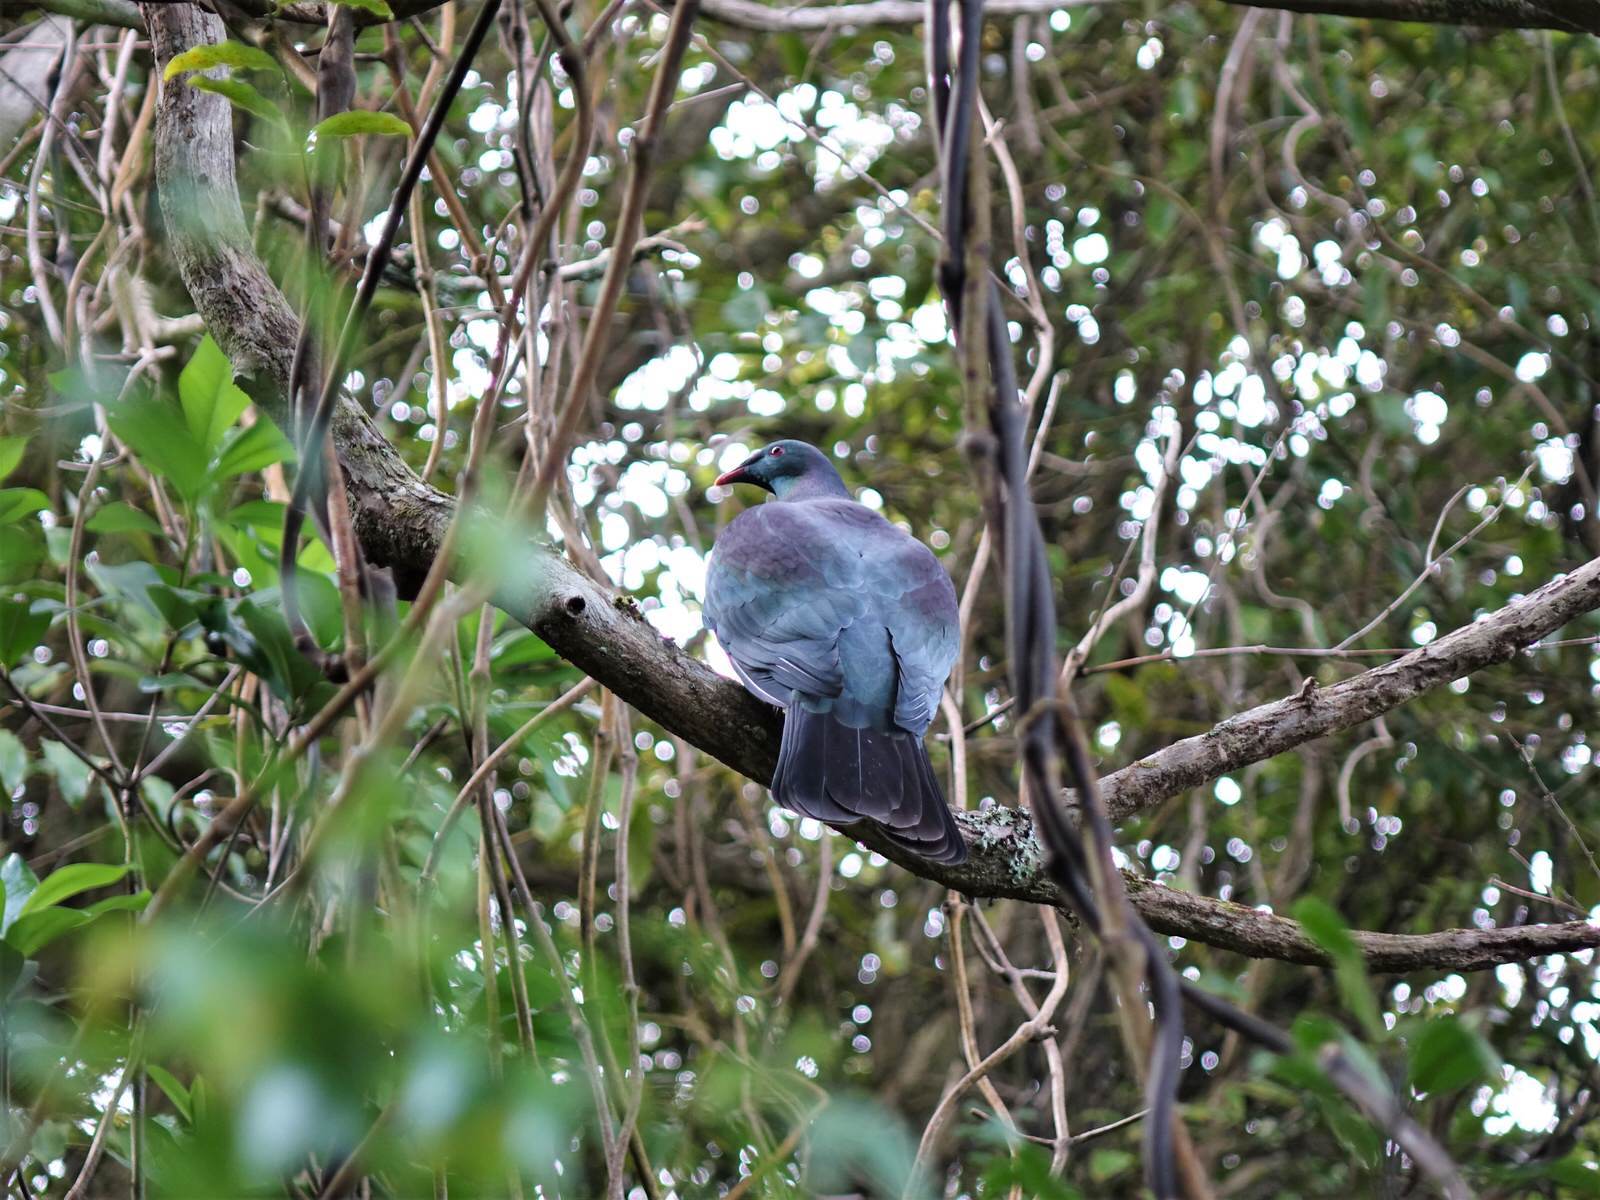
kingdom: Animalia
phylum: Chordata
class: Aves
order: Columbiformes
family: Columbidae
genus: Hemiphaga
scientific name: Hemiphaga novaeseelandiae
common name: New zealand pigeon
